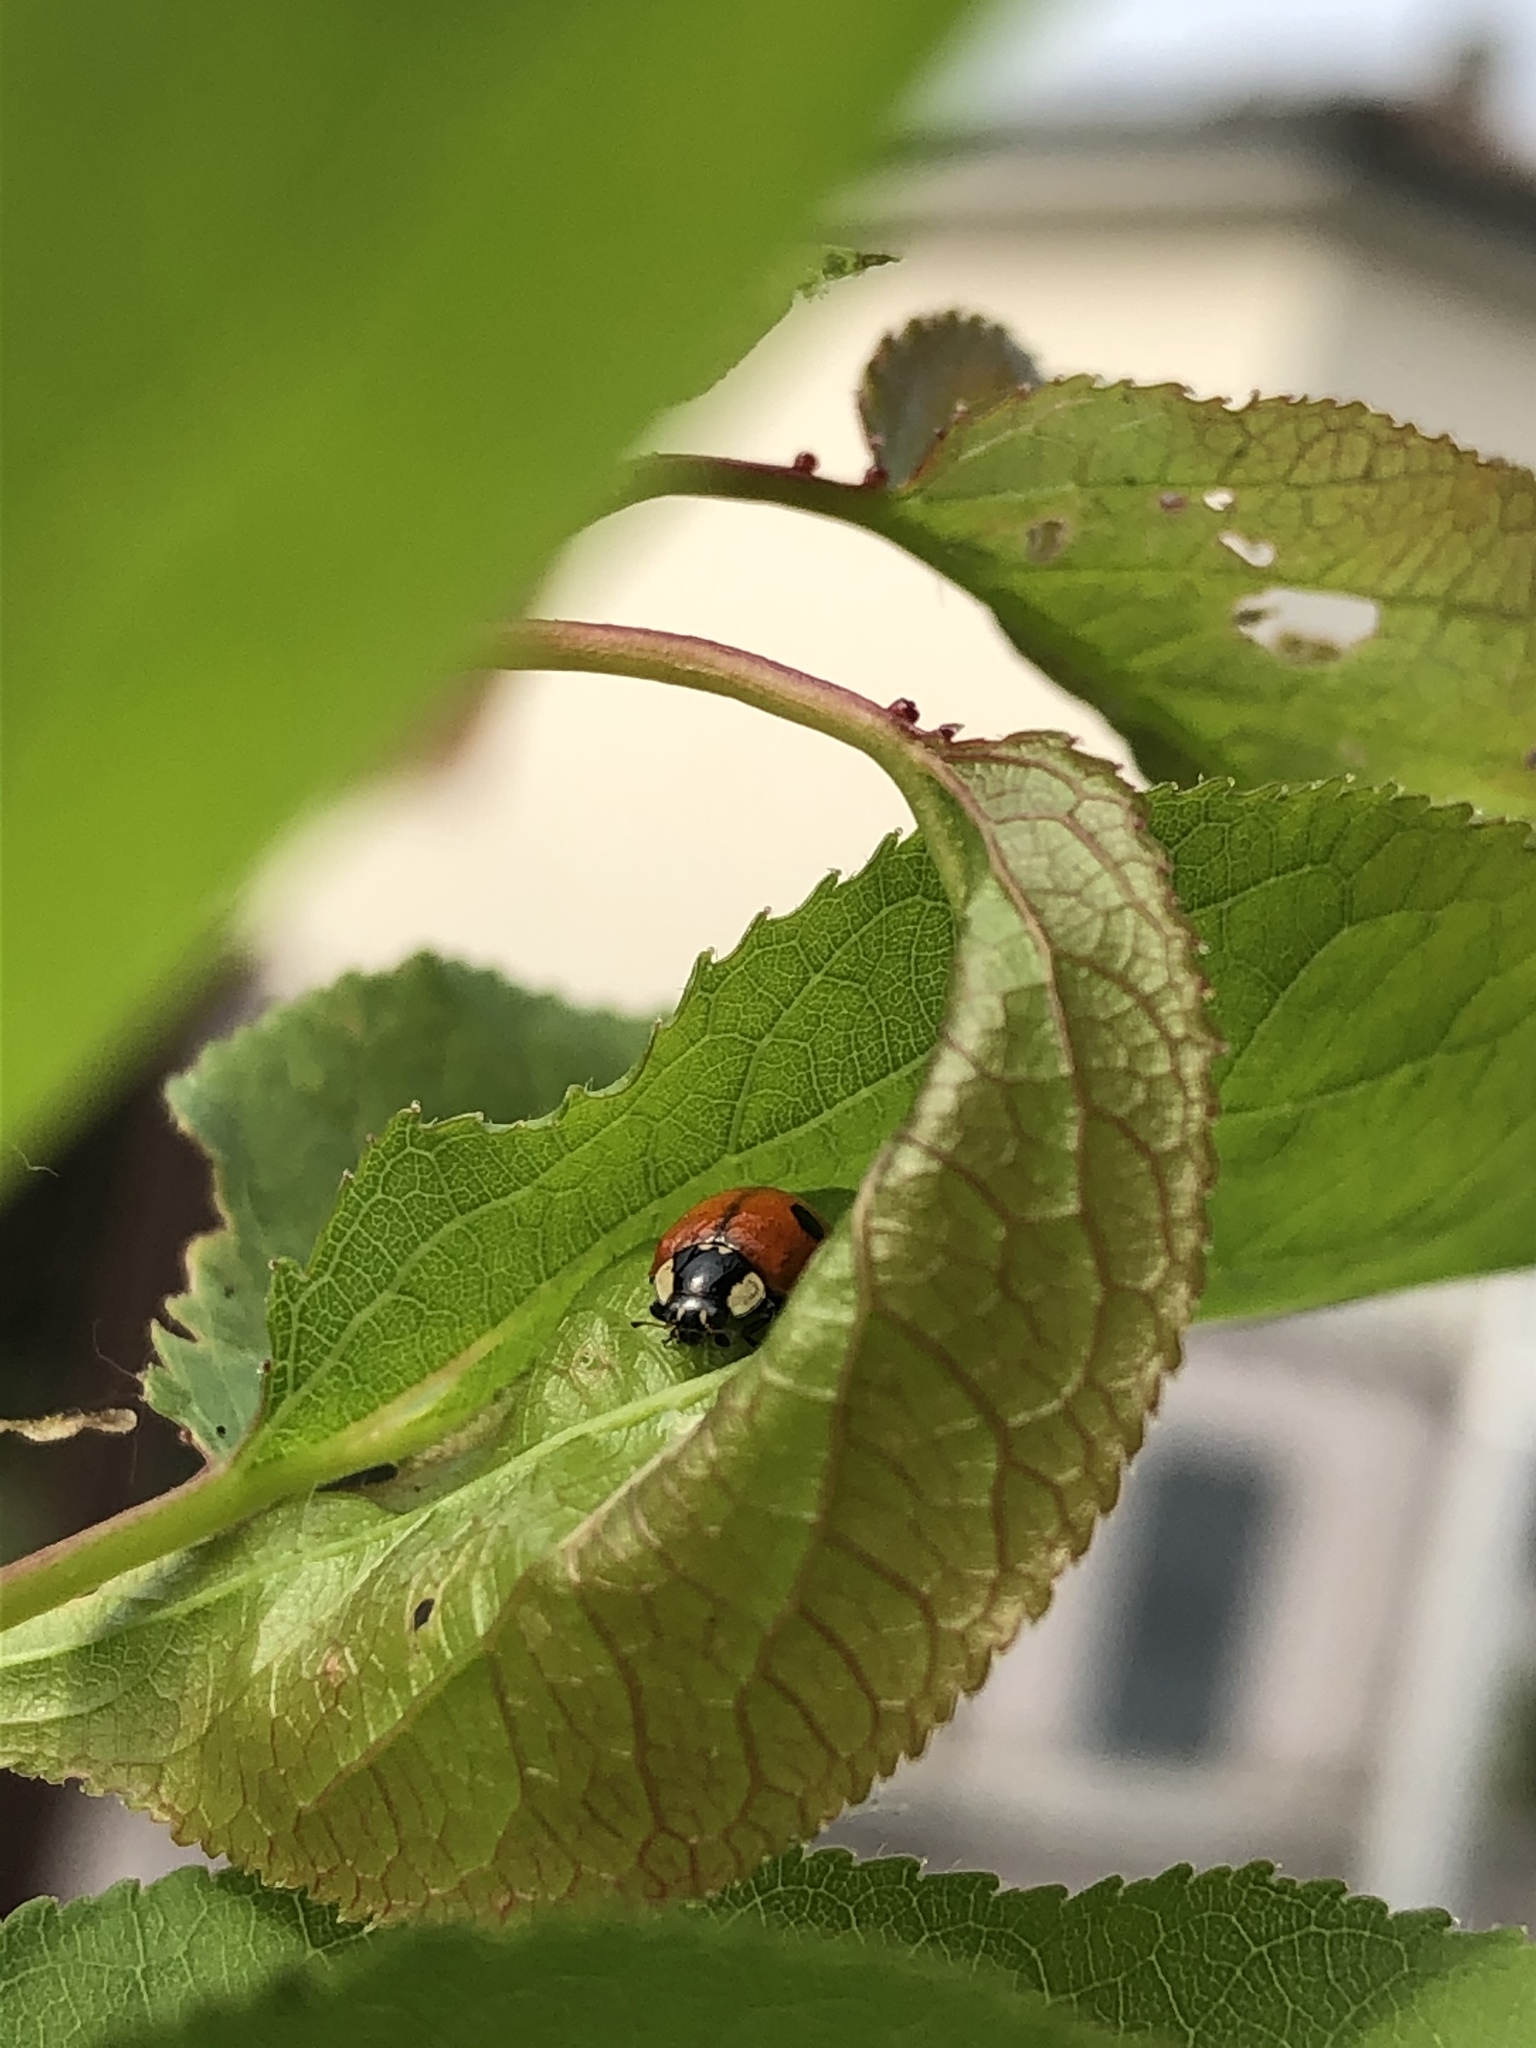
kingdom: Animalia
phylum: Arthropoda
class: Insecta
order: Coleoptera
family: Coccinellidae
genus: Adalia
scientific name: Adalia bipunctata
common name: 2-spot ladybird
